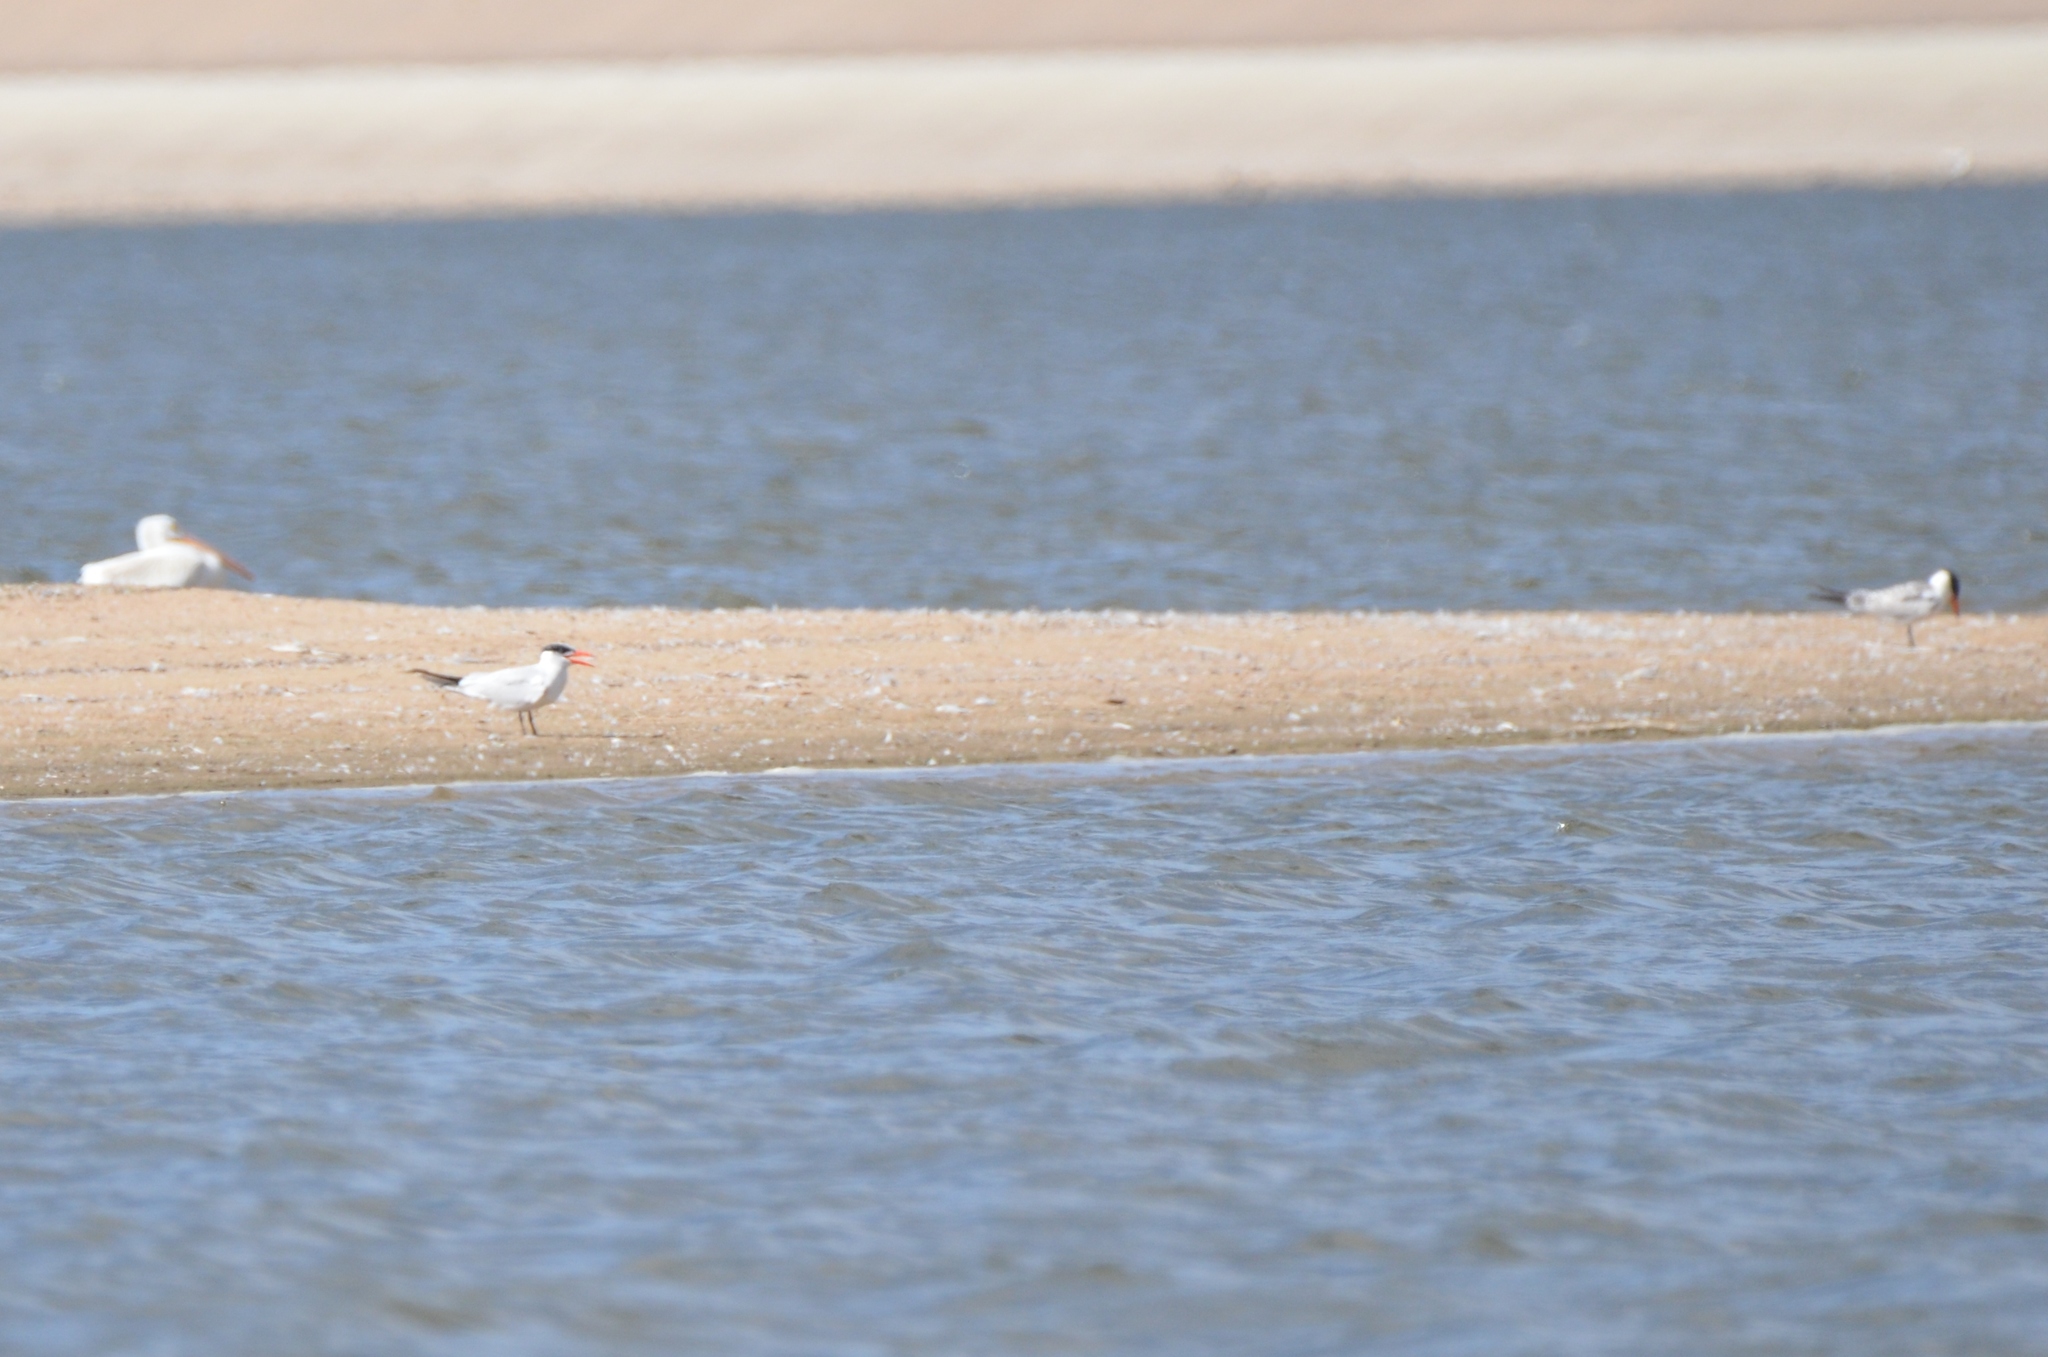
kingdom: Animalia
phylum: Chordata
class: Aves
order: Charadriiformes
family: Laridae
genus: Hydroprogne
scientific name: Hydroprogne caspia
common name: Caspian tern
